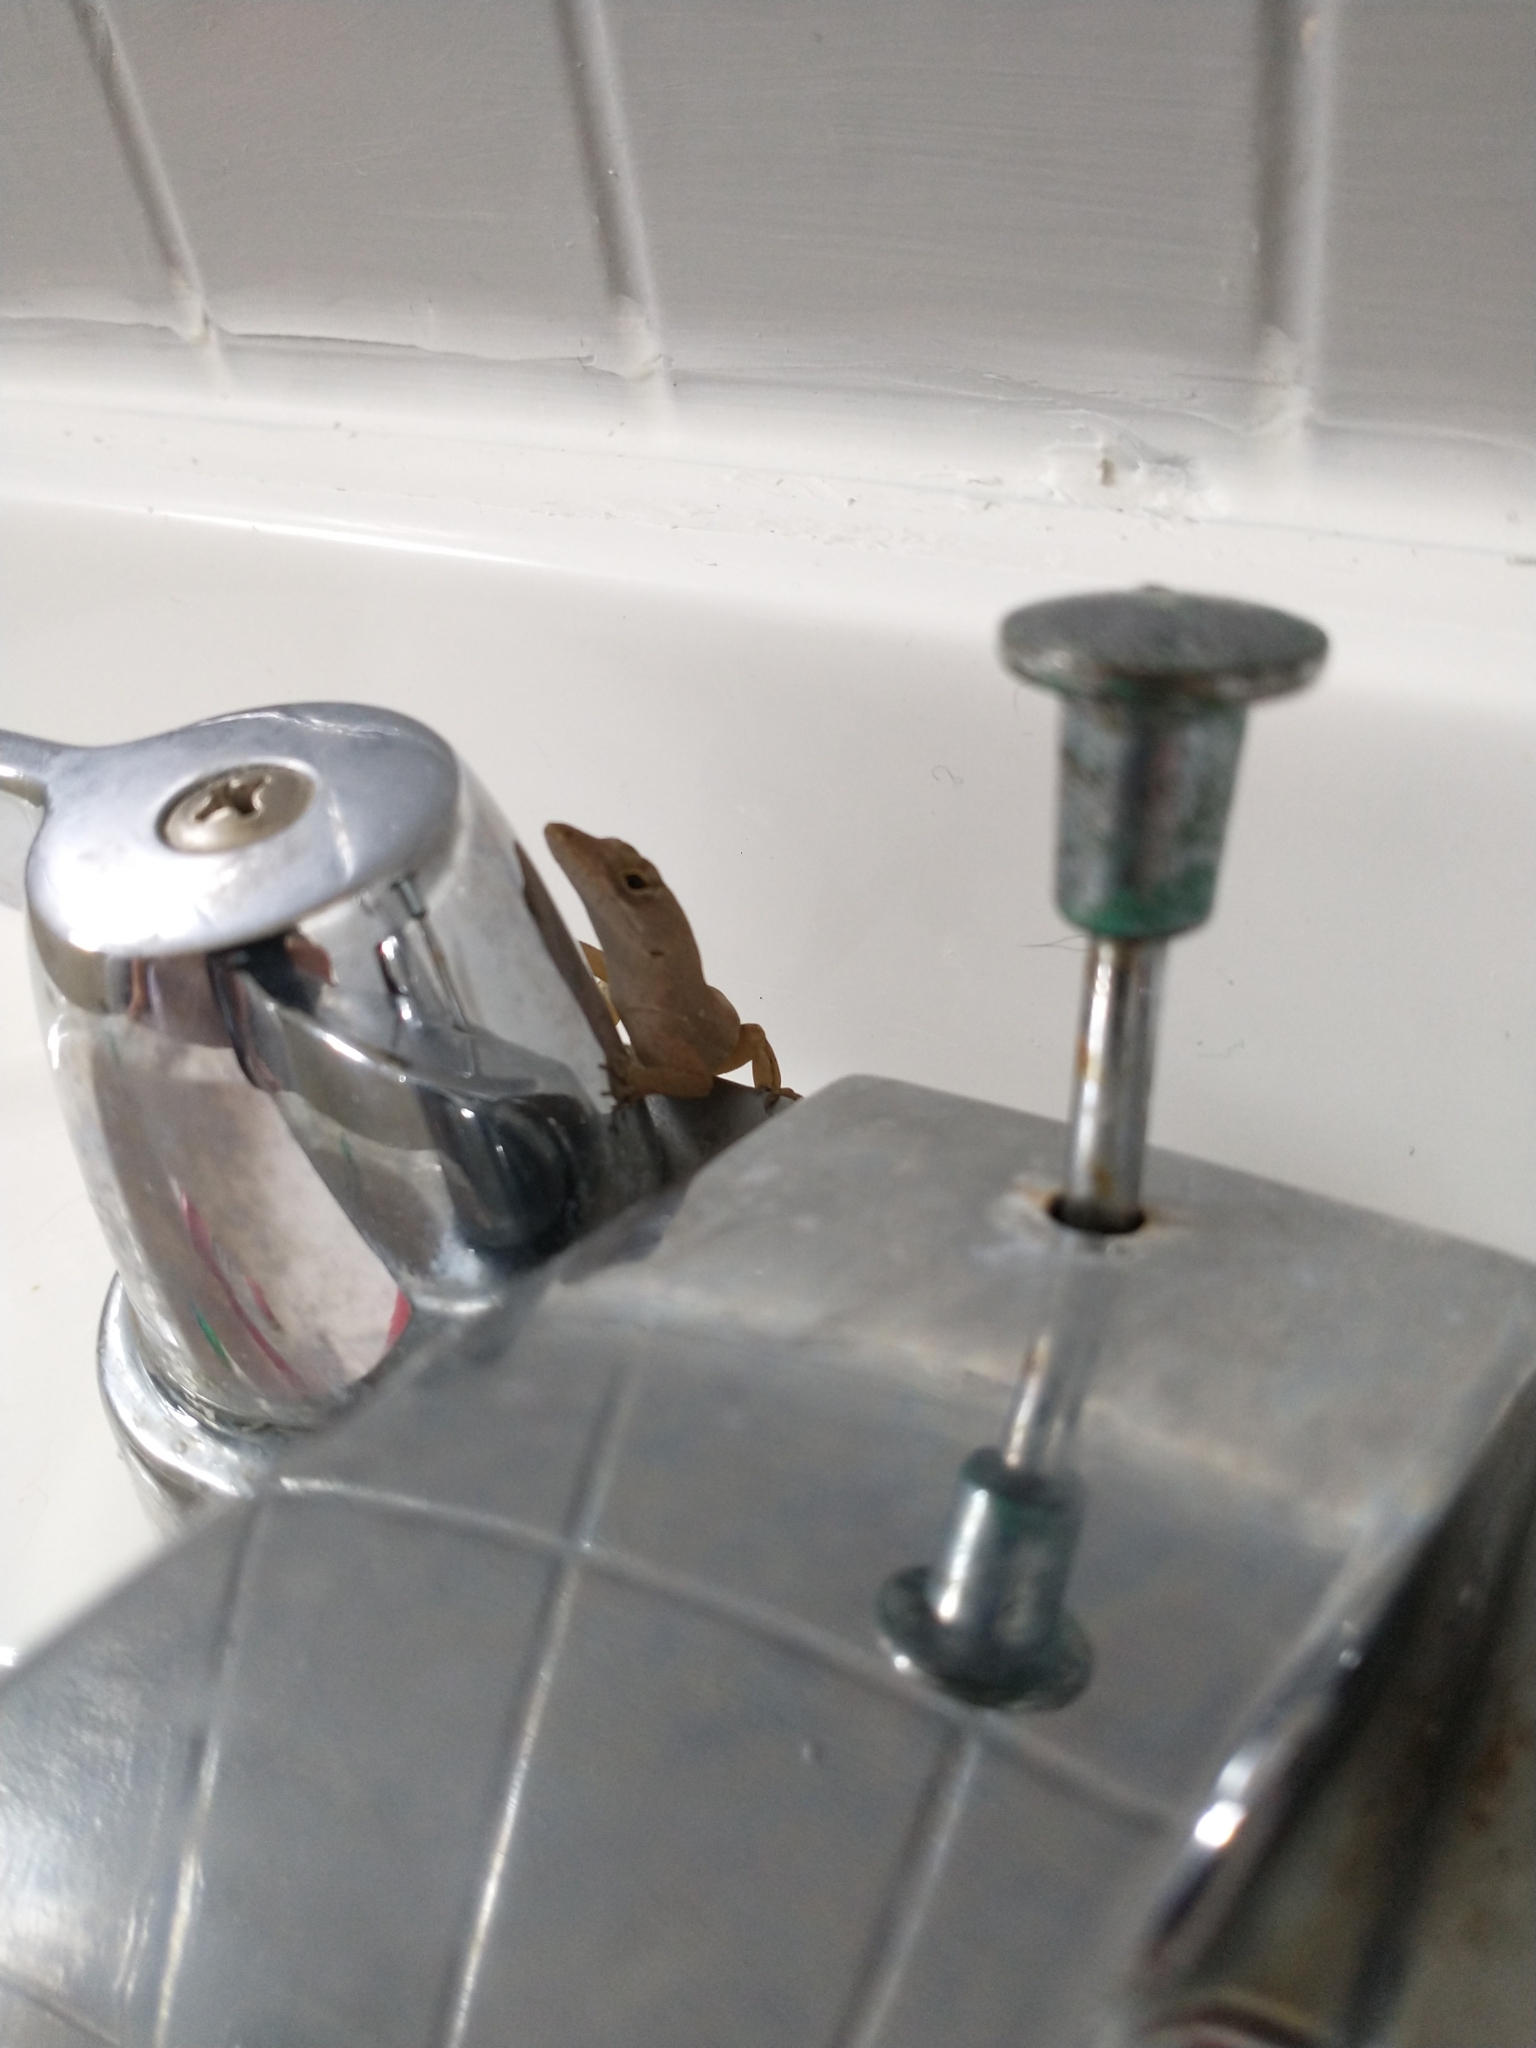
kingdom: Animalia
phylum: Chordata
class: Squamata
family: Dactyloidae
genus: Anolis
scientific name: Anolis sagrei
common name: Brown anole
